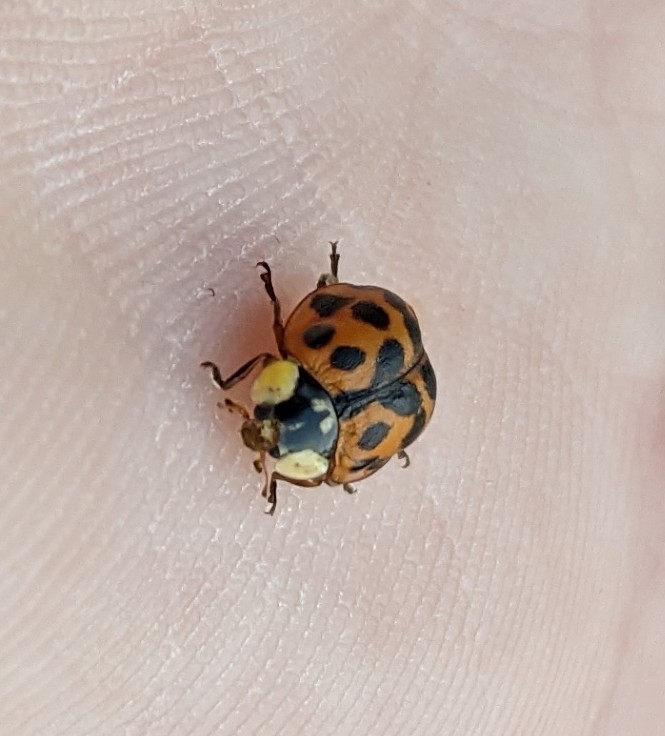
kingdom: Animalia
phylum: Arthropoda
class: Insecta
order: Coleoptera
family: Coccinellidae
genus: Harmonia
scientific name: Harmonia axyridis
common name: Harlequin ladybird
